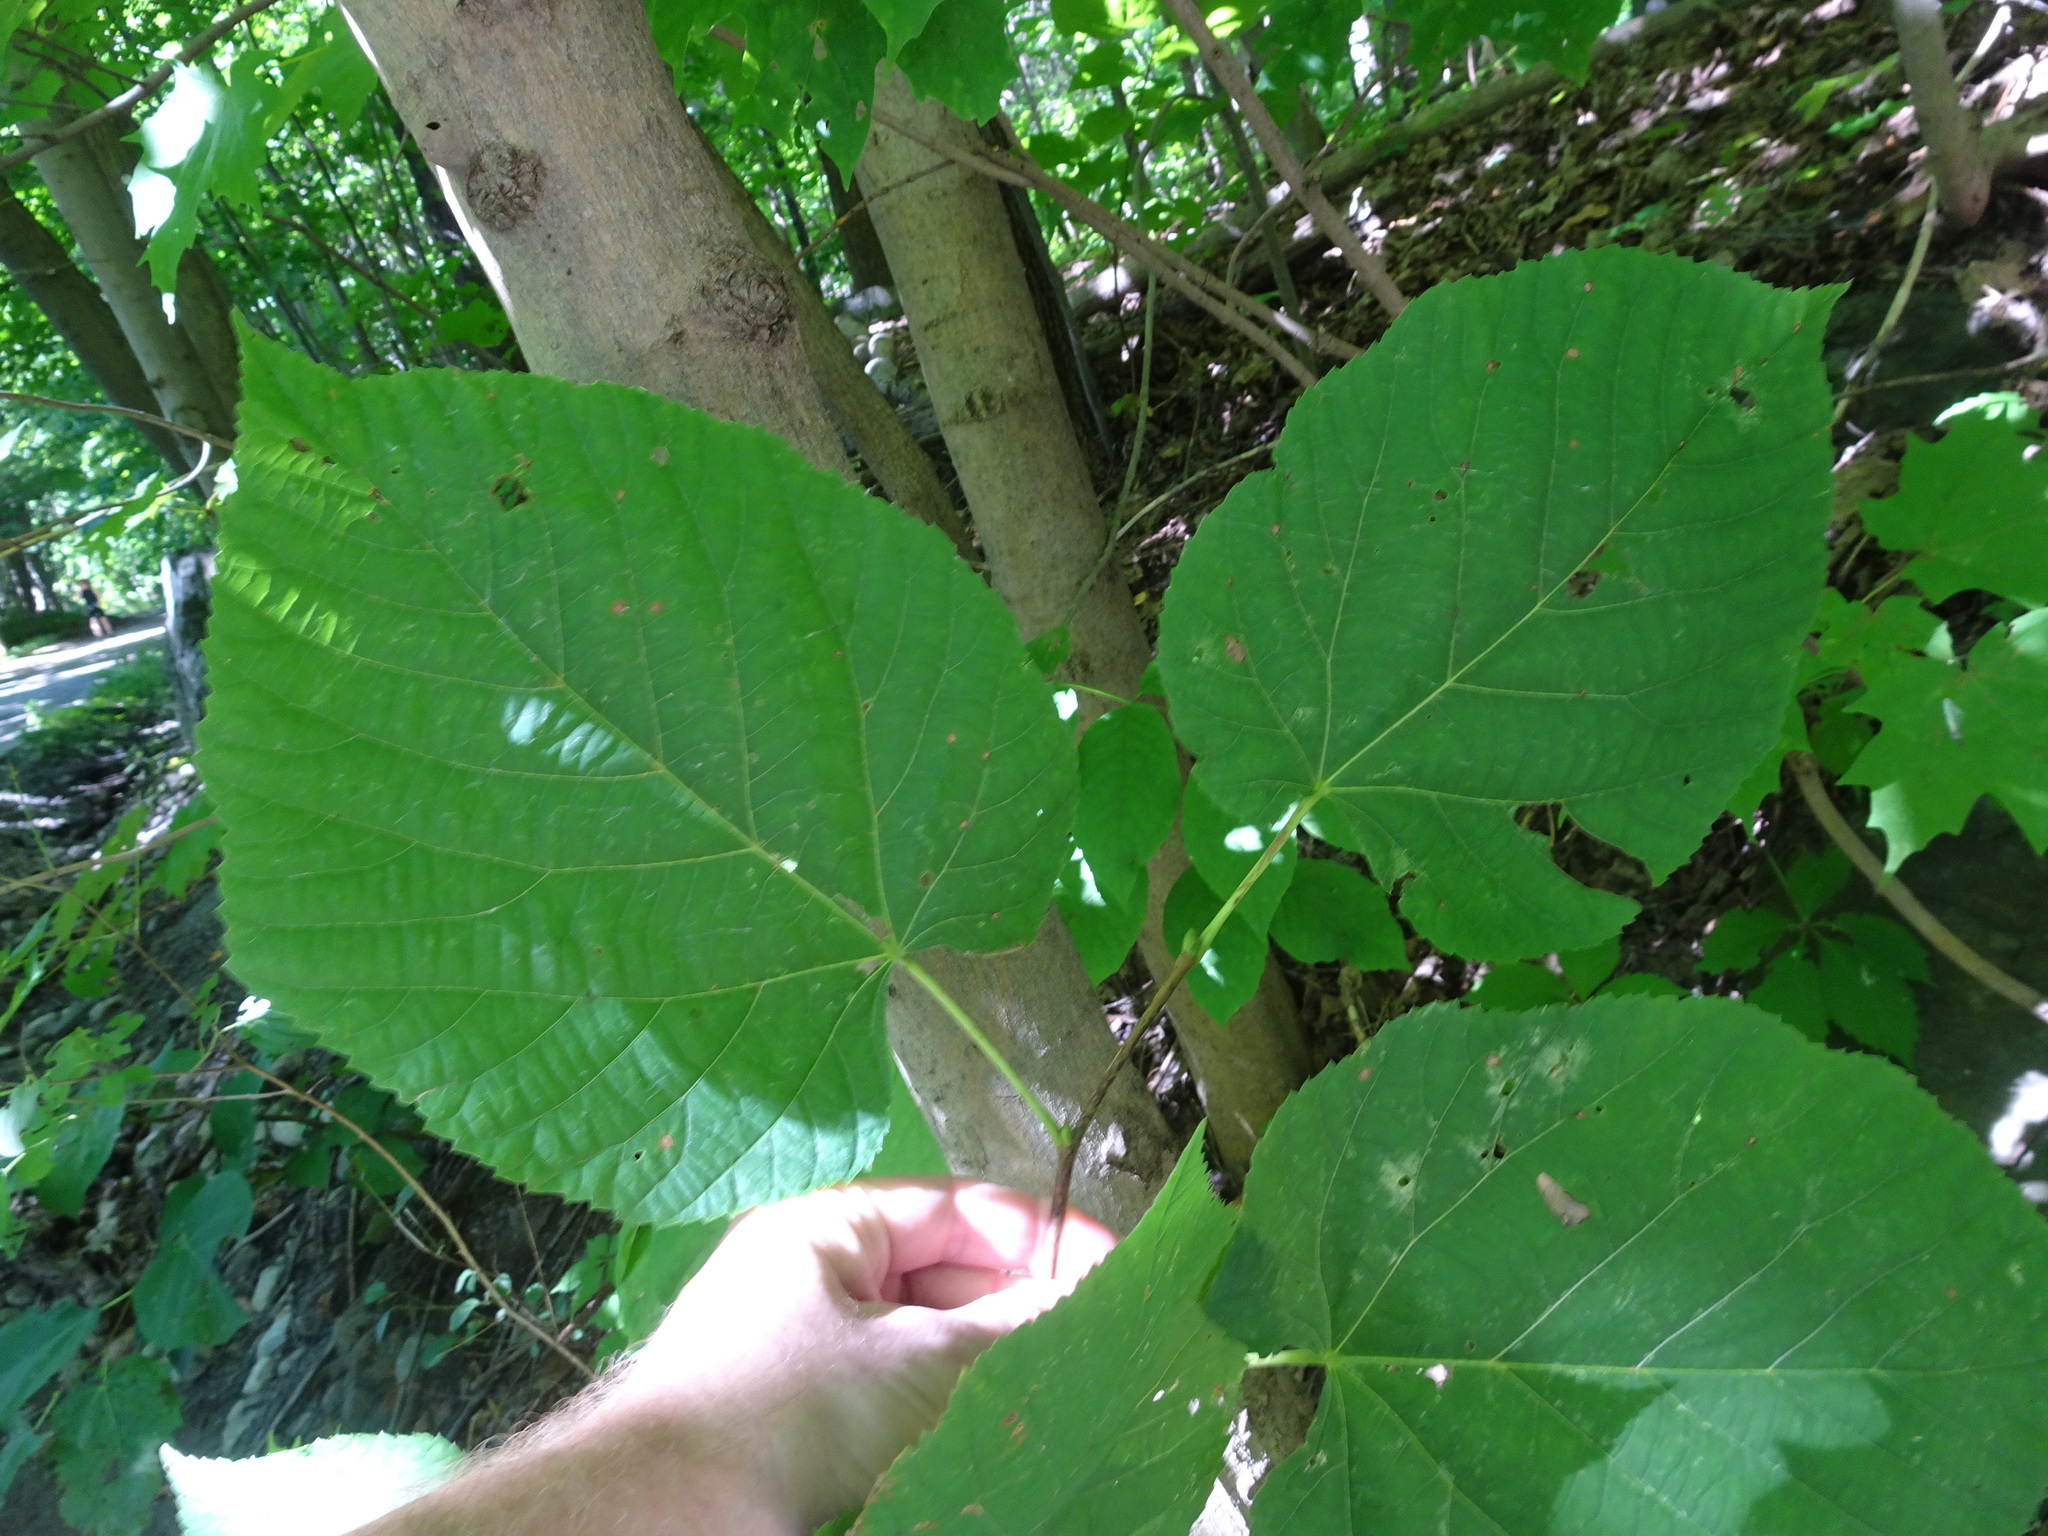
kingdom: Plantae
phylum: Tracheophyta
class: Magnoliopsida
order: Malvales
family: Malvaceae
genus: Tilia
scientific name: Tilia americana
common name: Basswood
